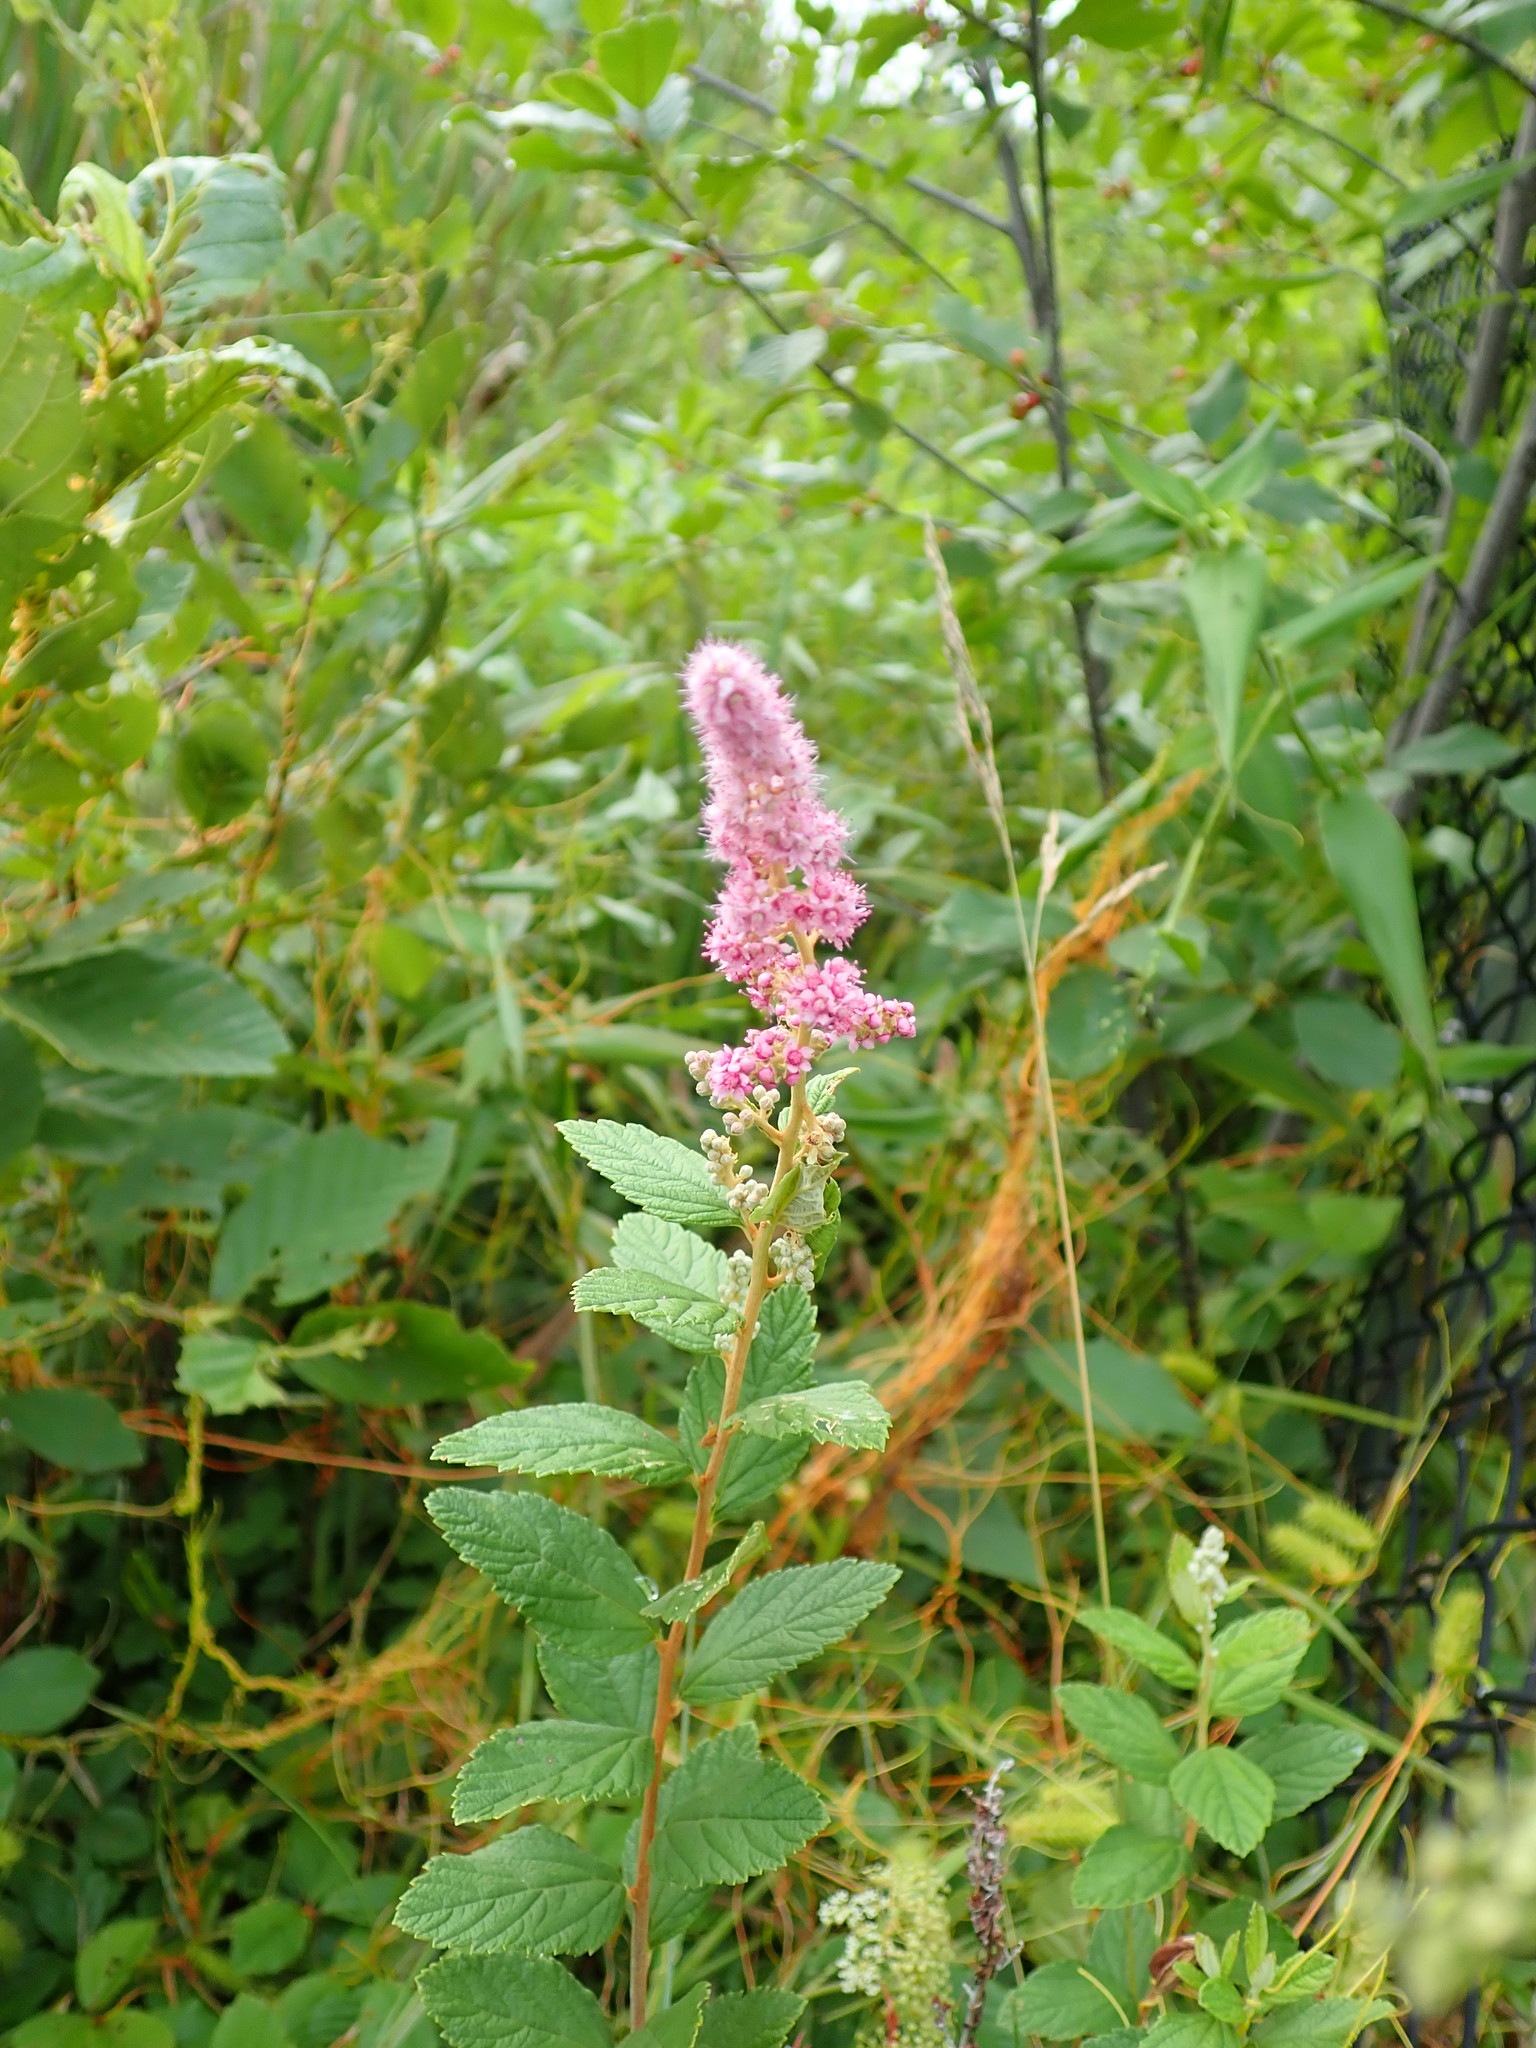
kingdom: Plantae
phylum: Tracheophyta
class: Magnoliopsida
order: Rosales
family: Rosaceae
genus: Spiraea
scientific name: Spiraea tomentosa
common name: Hardhack
